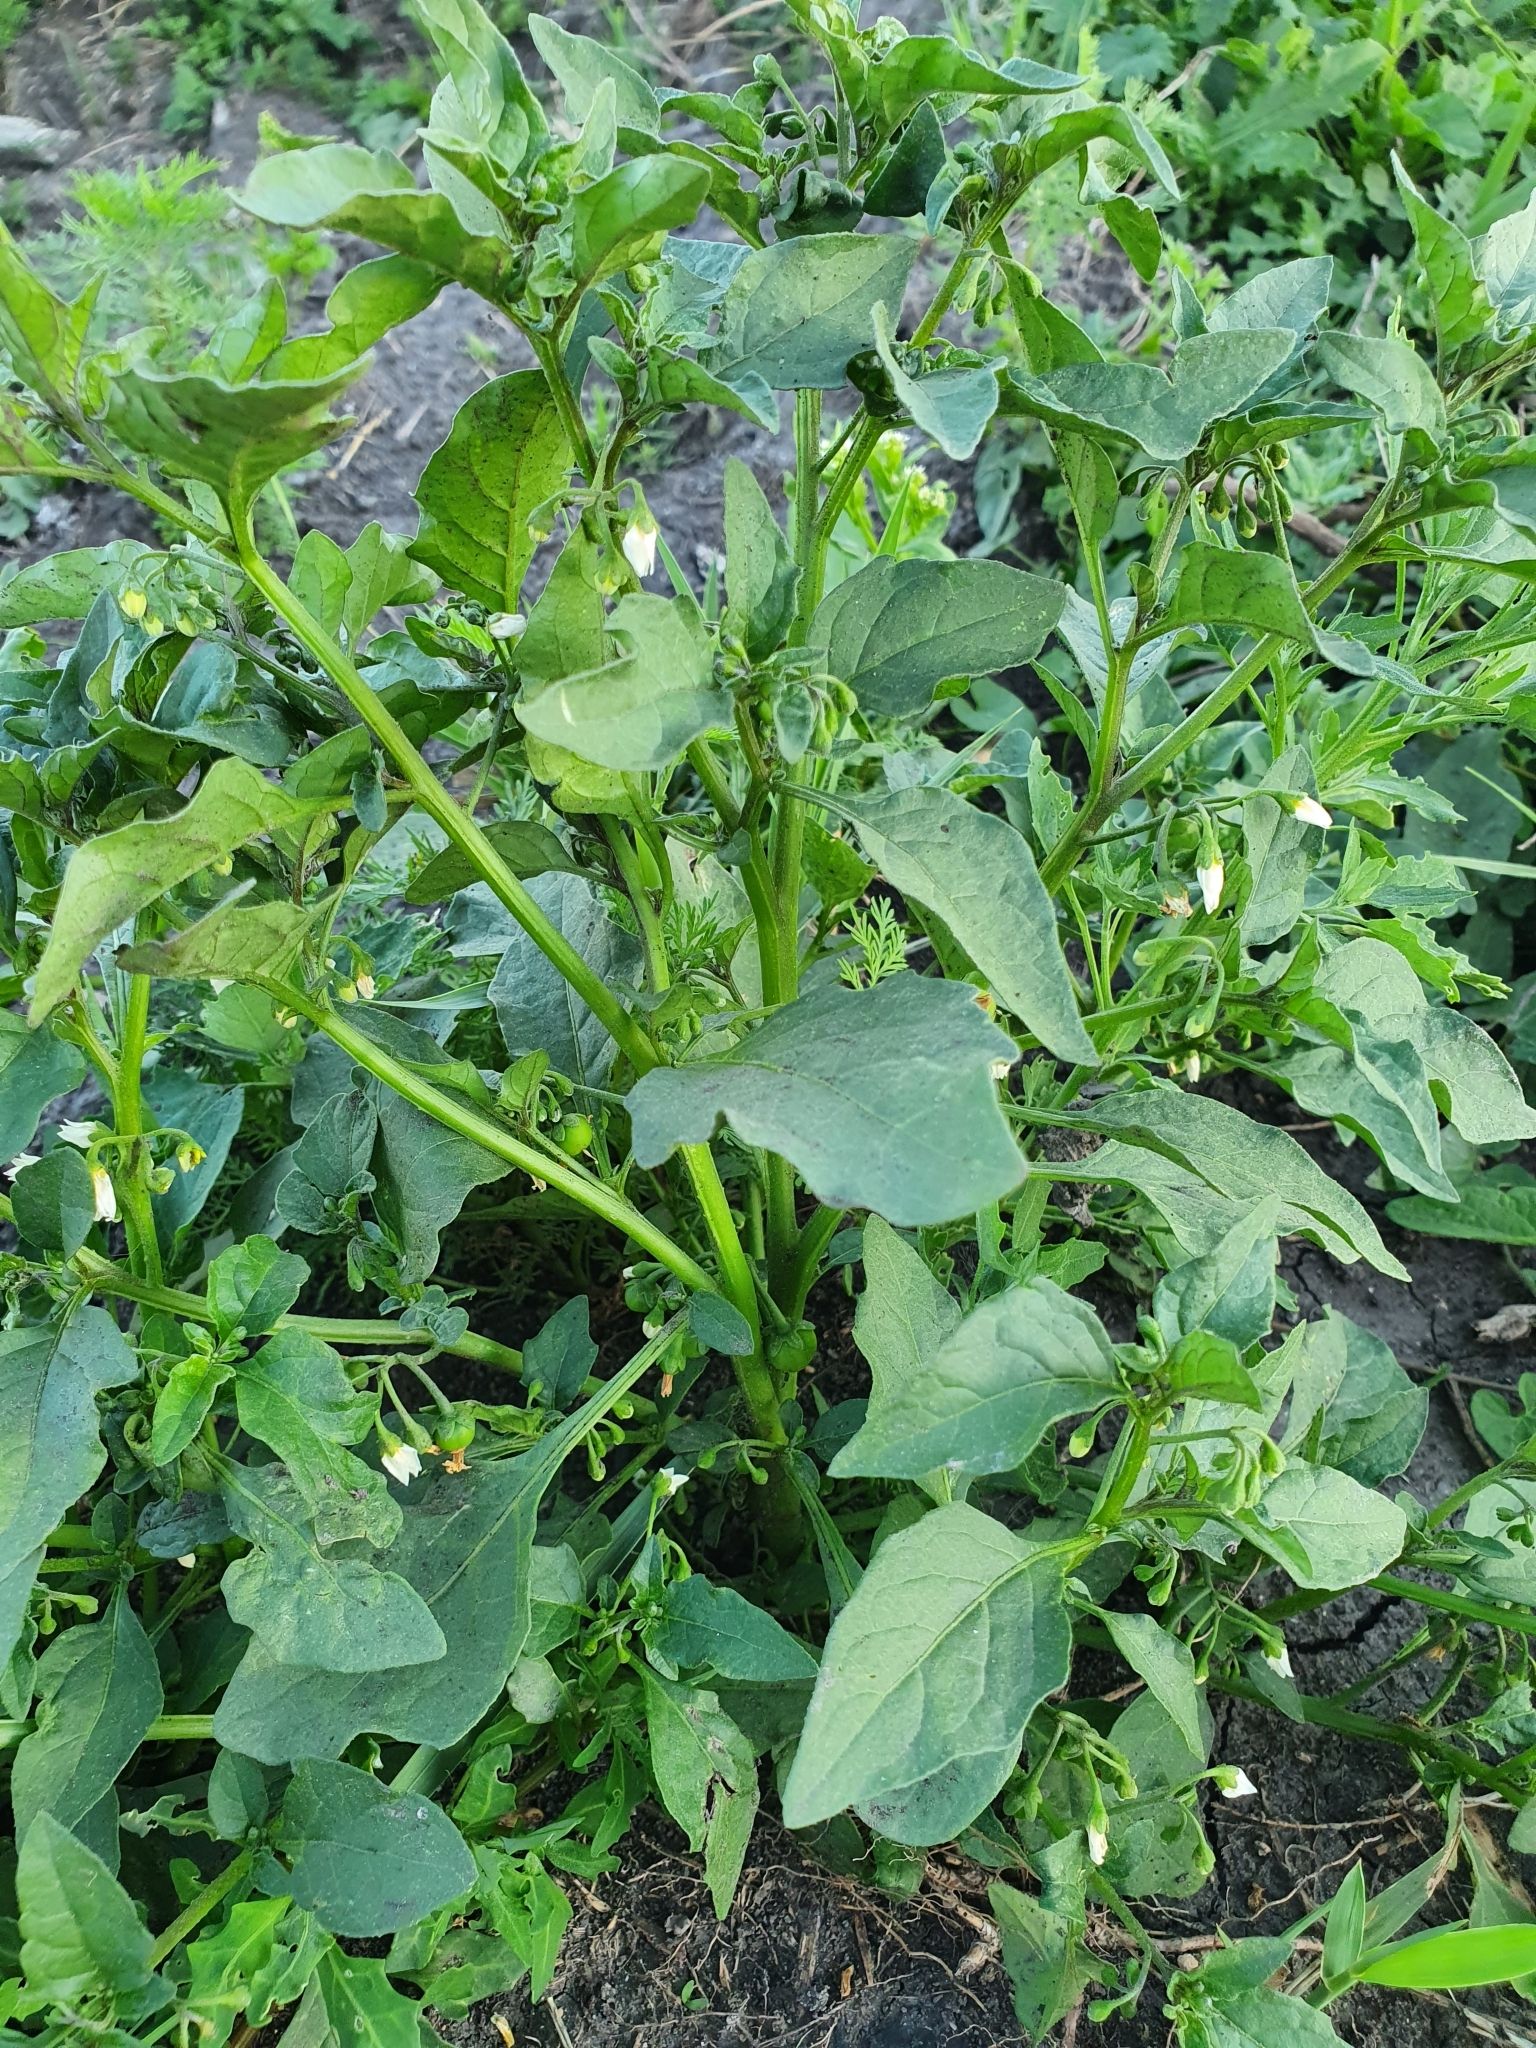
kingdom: Plantae
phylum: Tracheophyta
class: Magnoliopsida
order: Solanales
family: Solanaceae
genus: Solanum
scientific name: Solanum nigrum
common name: Black nightshade
